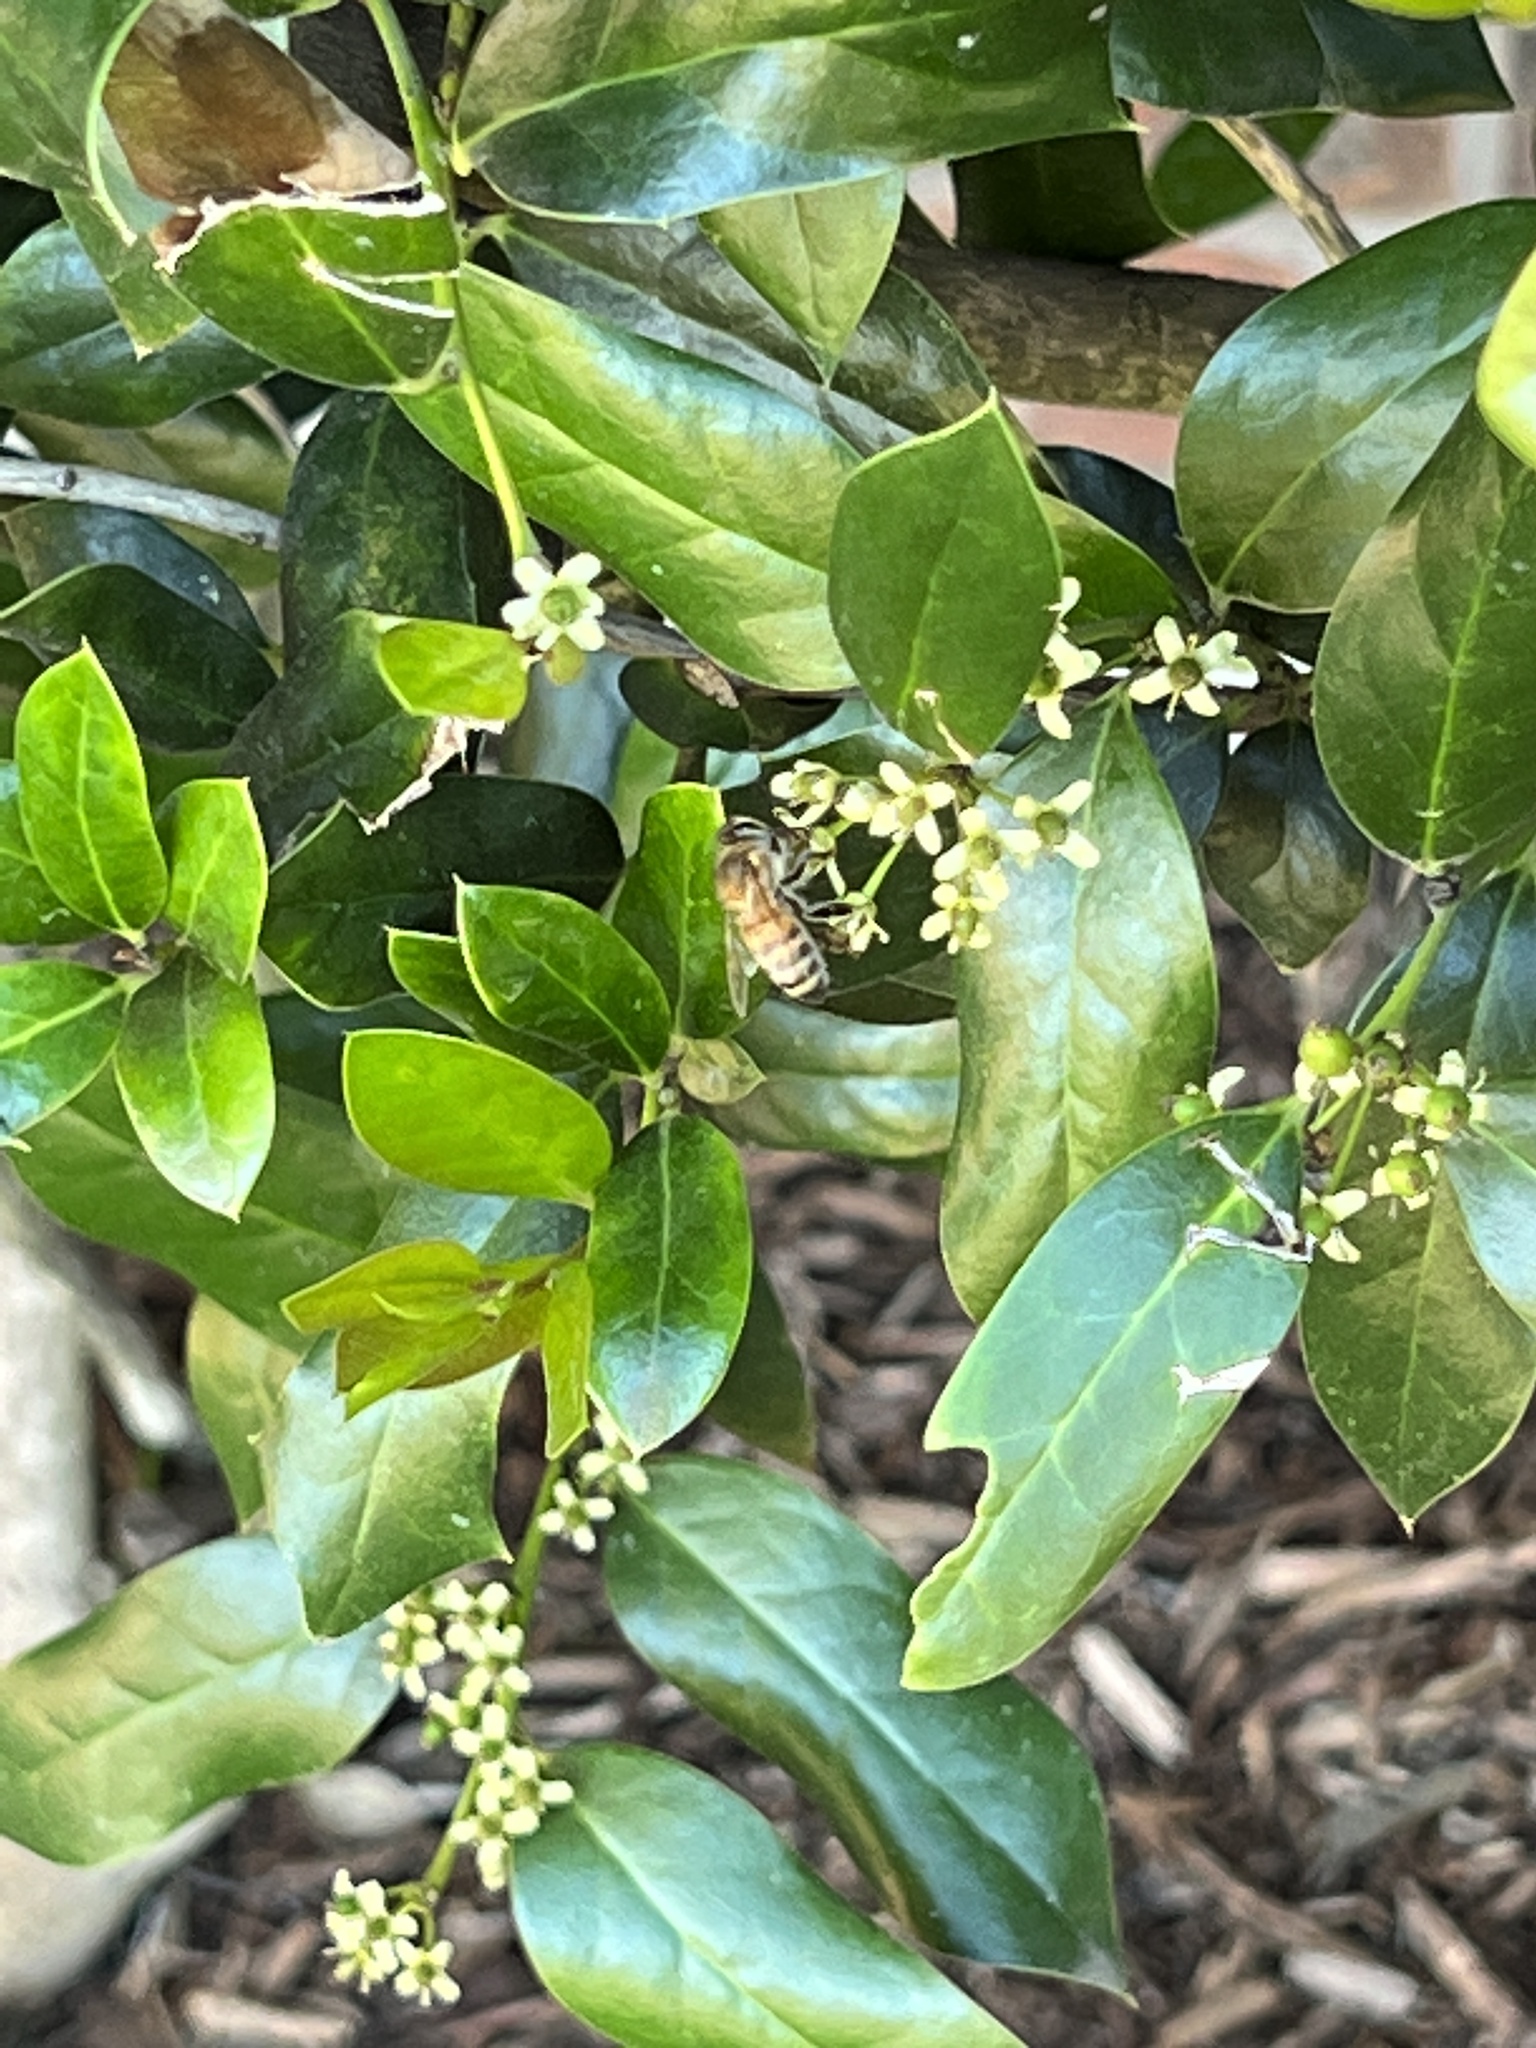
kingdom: Animalia
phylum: Arthropoda
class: Insecta
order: Hymenoptera
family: Apidae
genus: Apis
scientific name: Apis mellifera
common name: Honey bee
